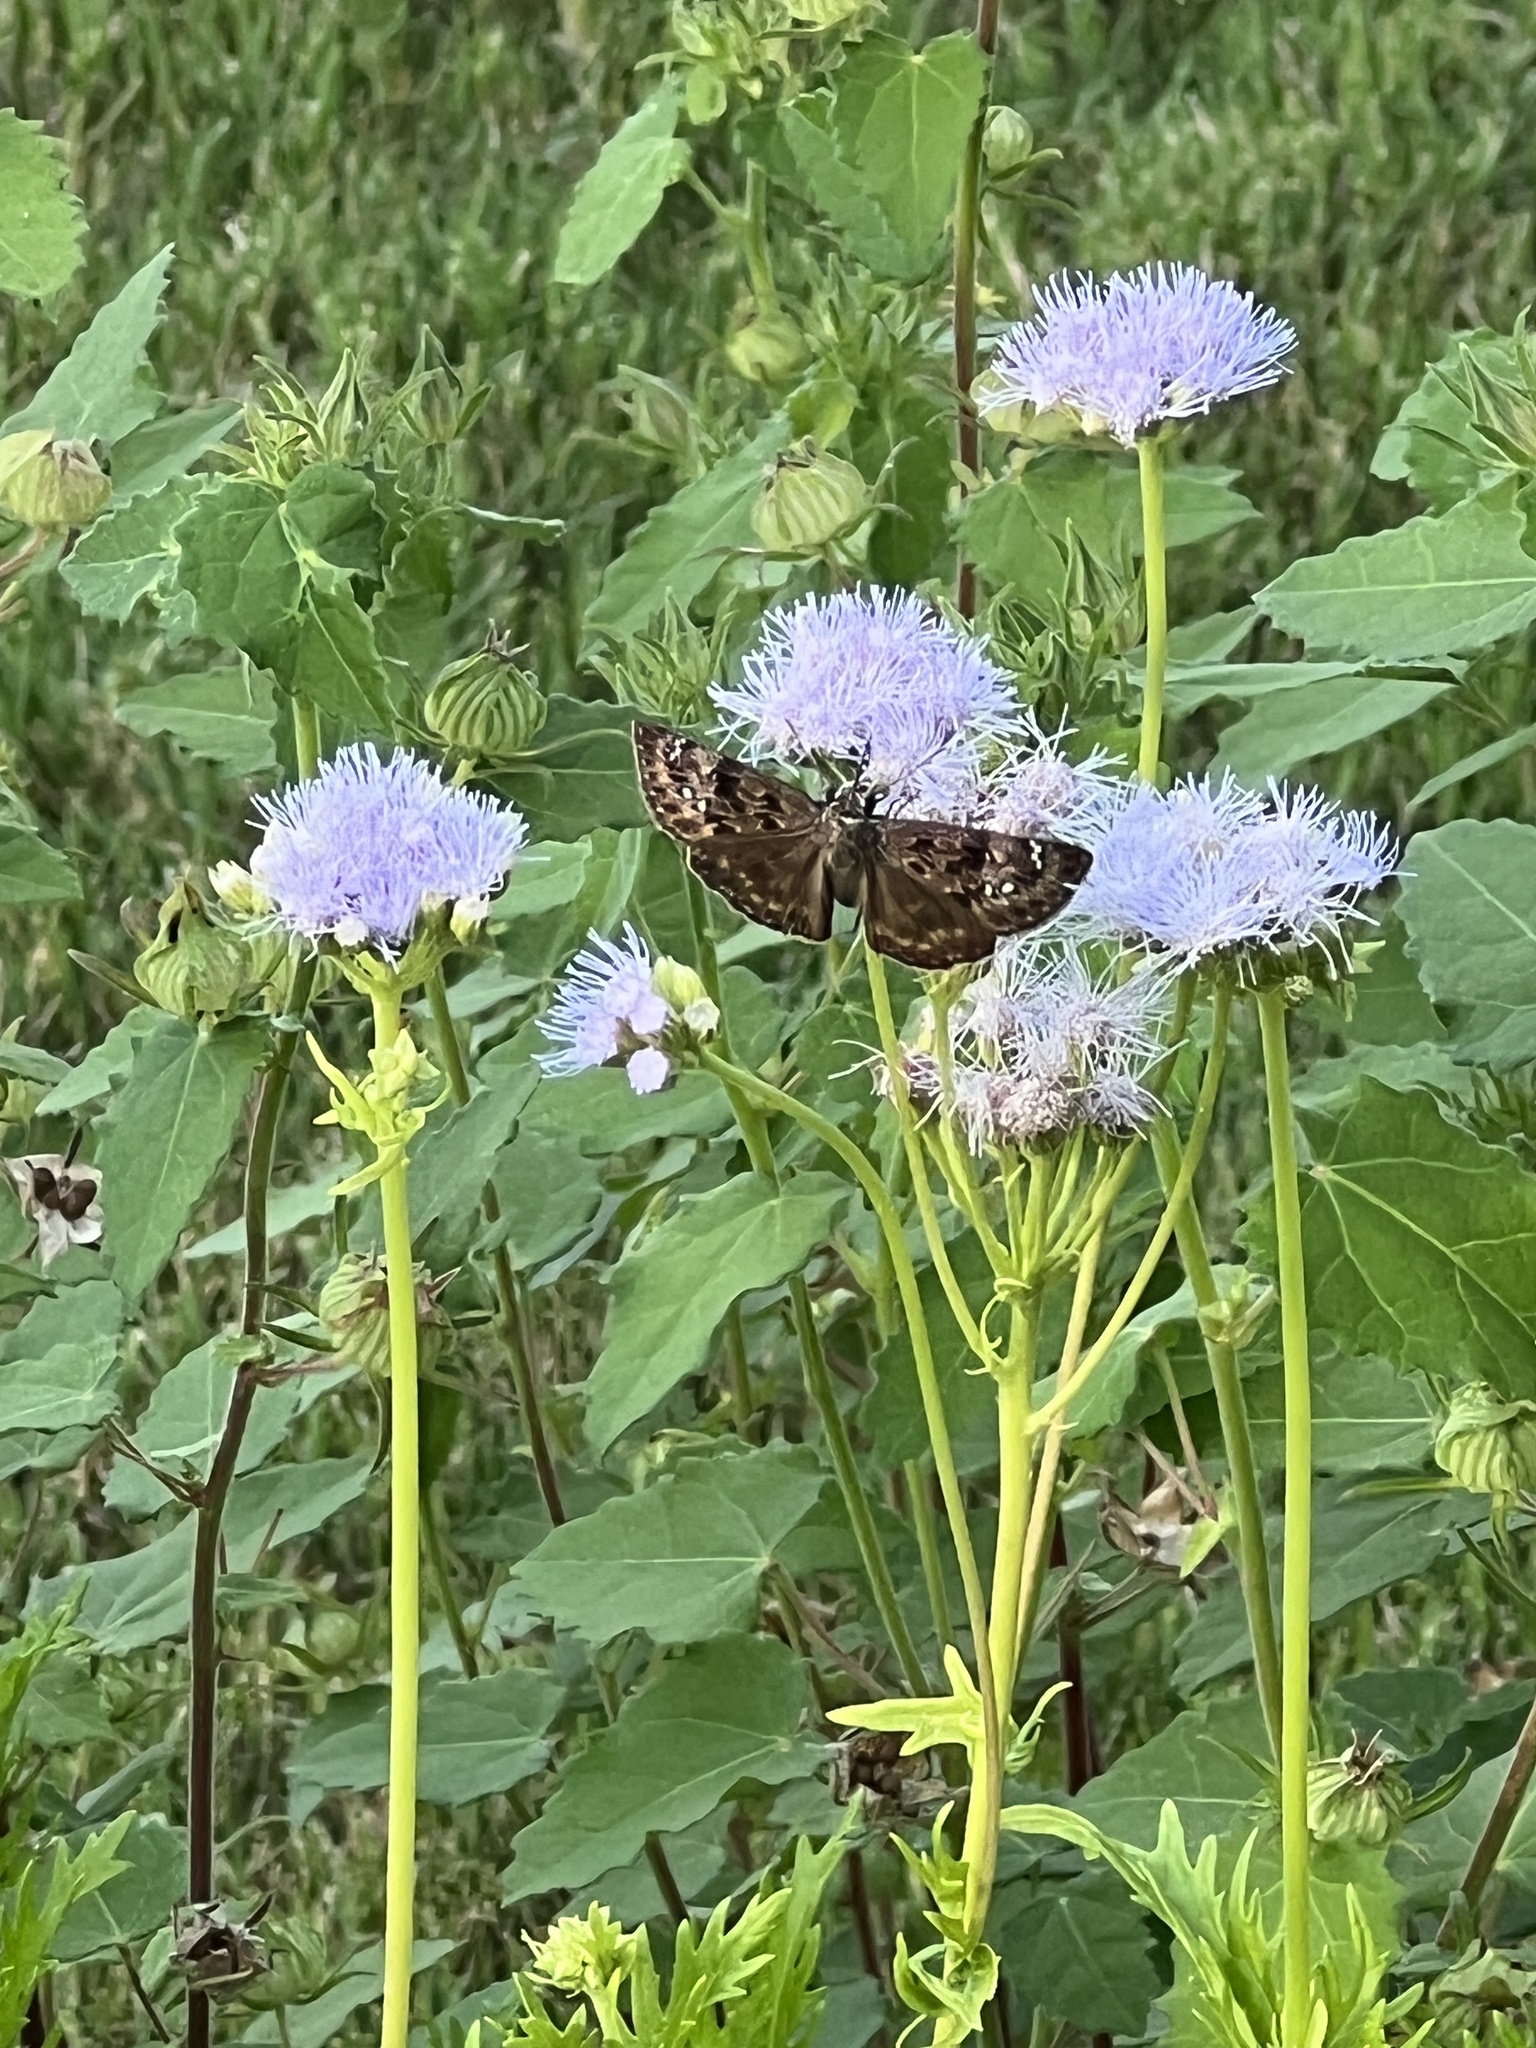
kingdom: Animalia
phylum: Arthropoda
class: Insecta
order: Lepidoptera
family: Hesperiidae
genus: Erynnis
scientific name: Erynnis horatius
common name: Horace's duskywing
